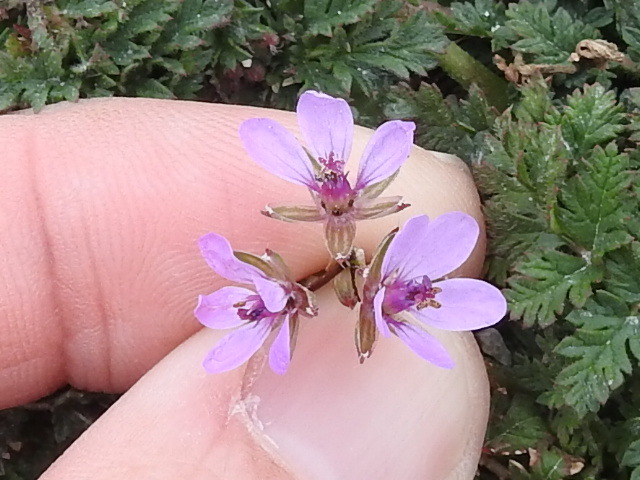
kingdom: Plantae
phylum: Tracheophyta
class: Magnoliopsida
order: Geraniales
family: Geraniaceae
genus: Erodium
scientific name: Erodium cicutarium
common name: Common stork's-bill
